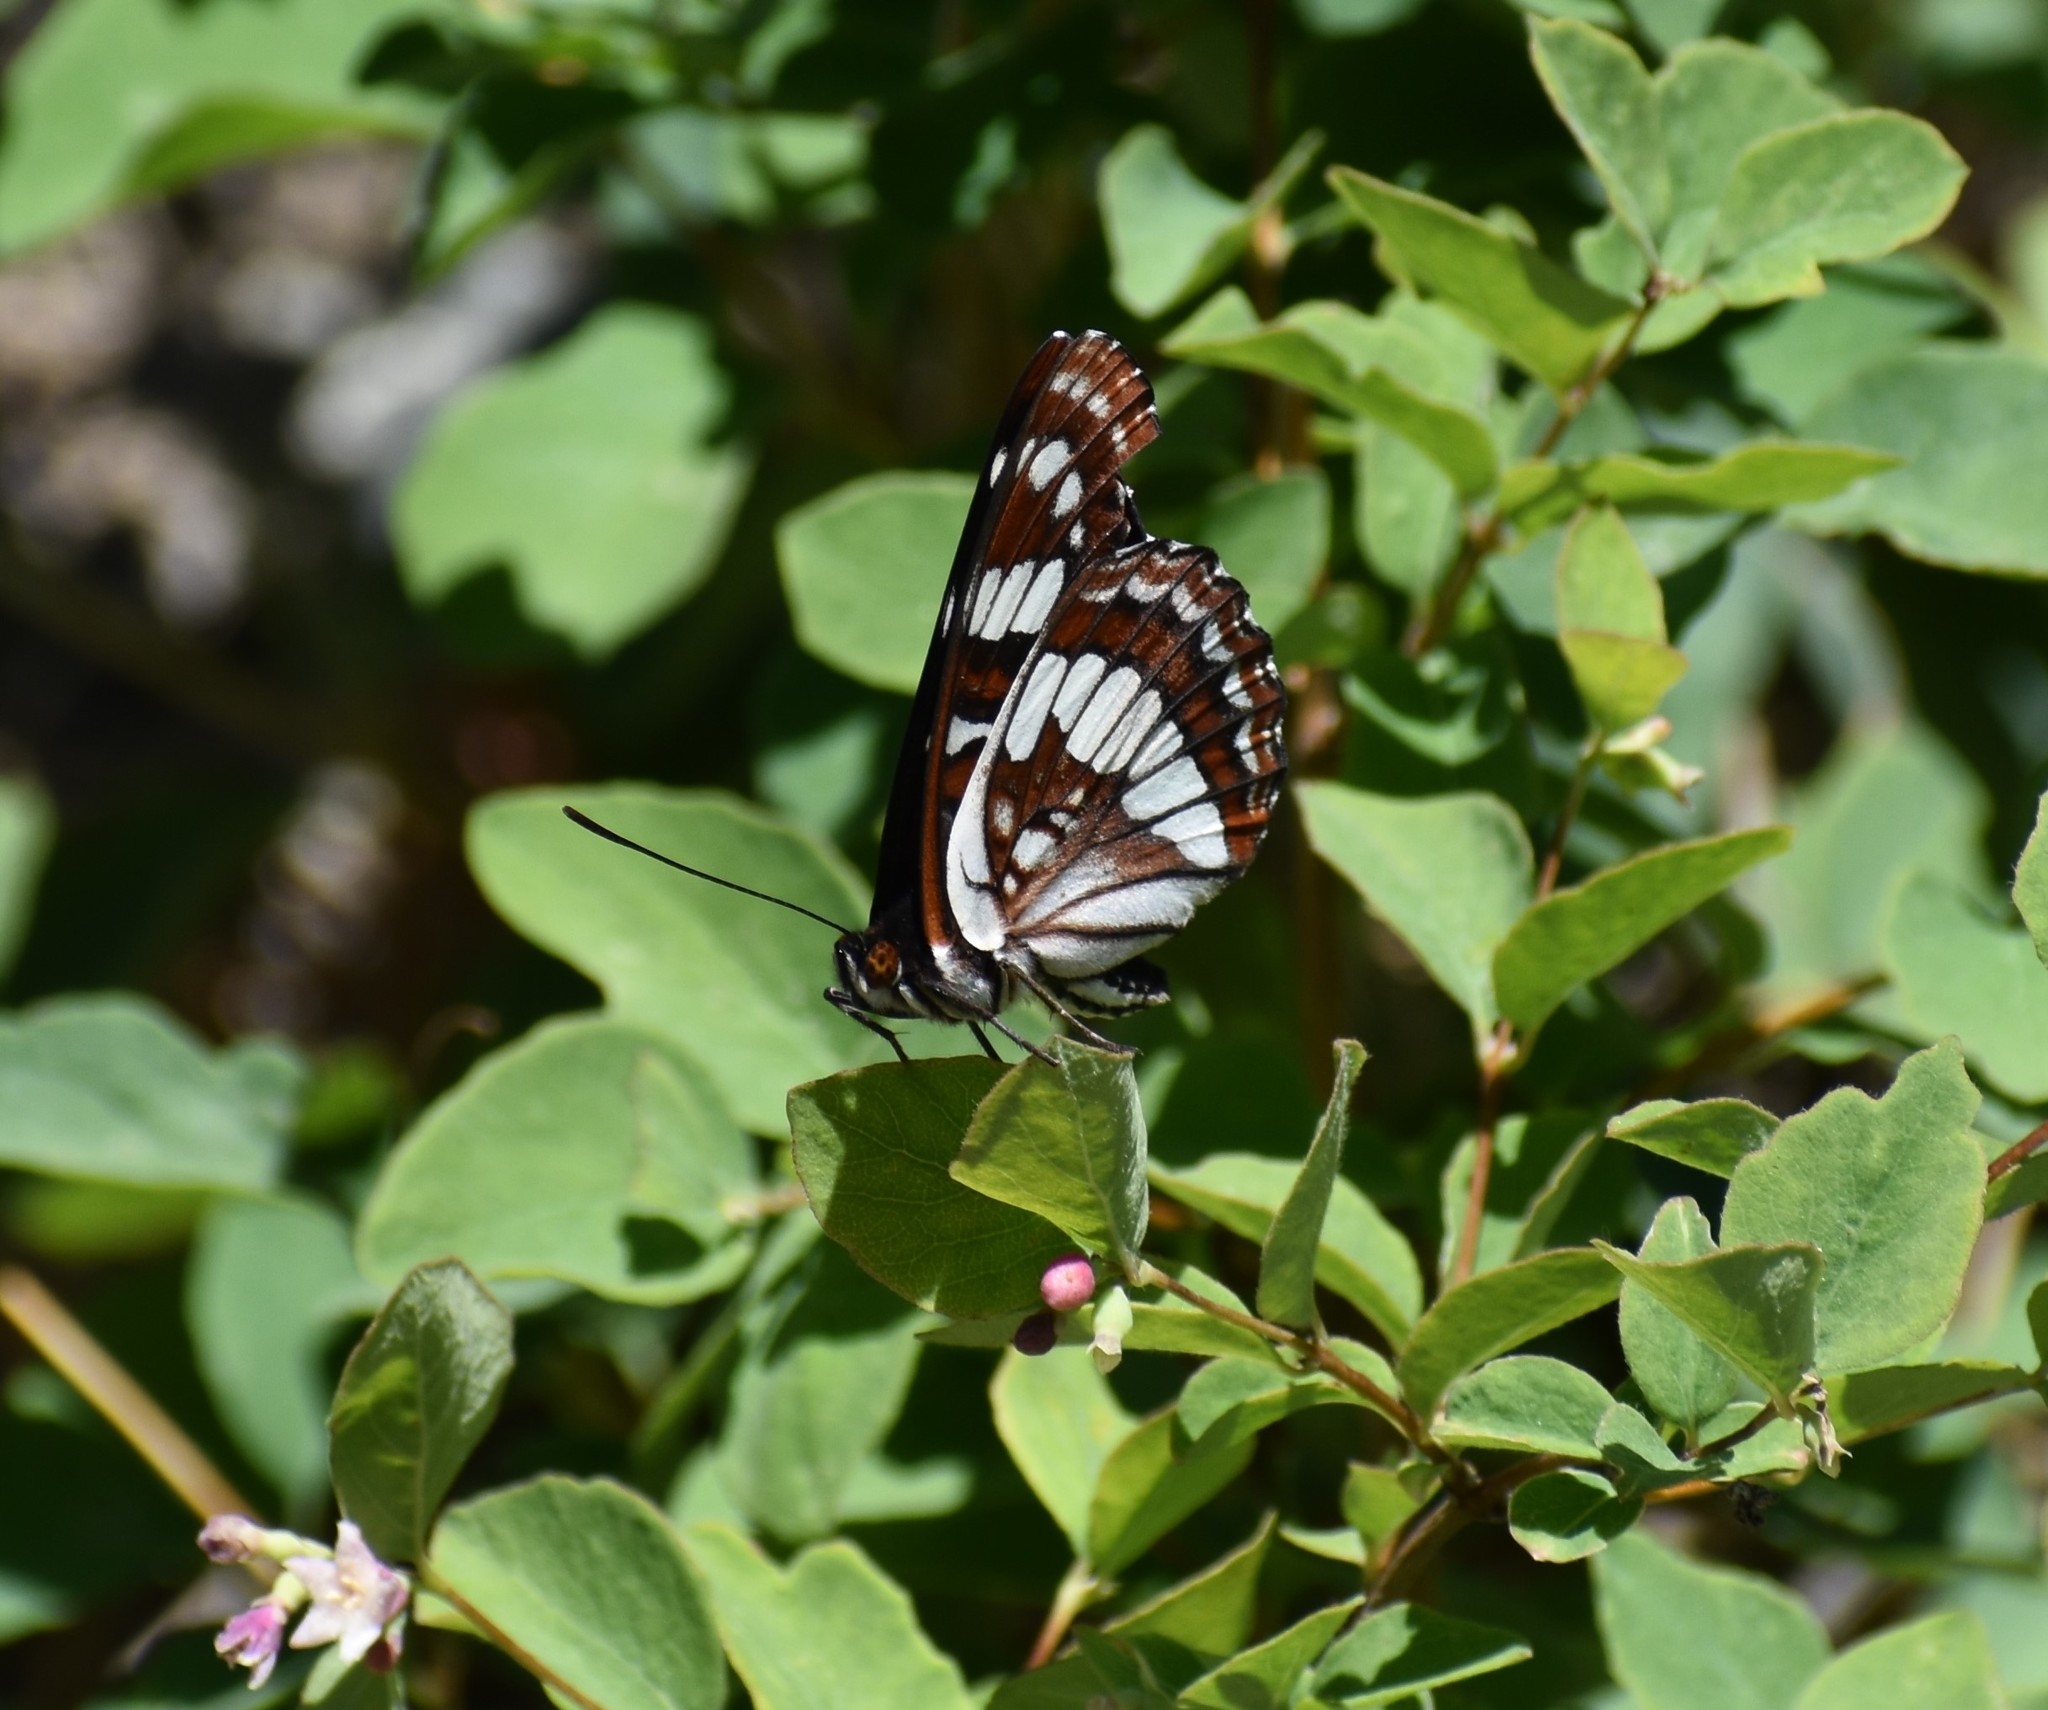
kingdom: Animalia
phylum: Arthropoda
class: Insecta
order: Lepidoptera
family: Nymphalidae
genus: Limenitis
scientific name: Limenitis lorquini
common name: Lorquin's admiral
